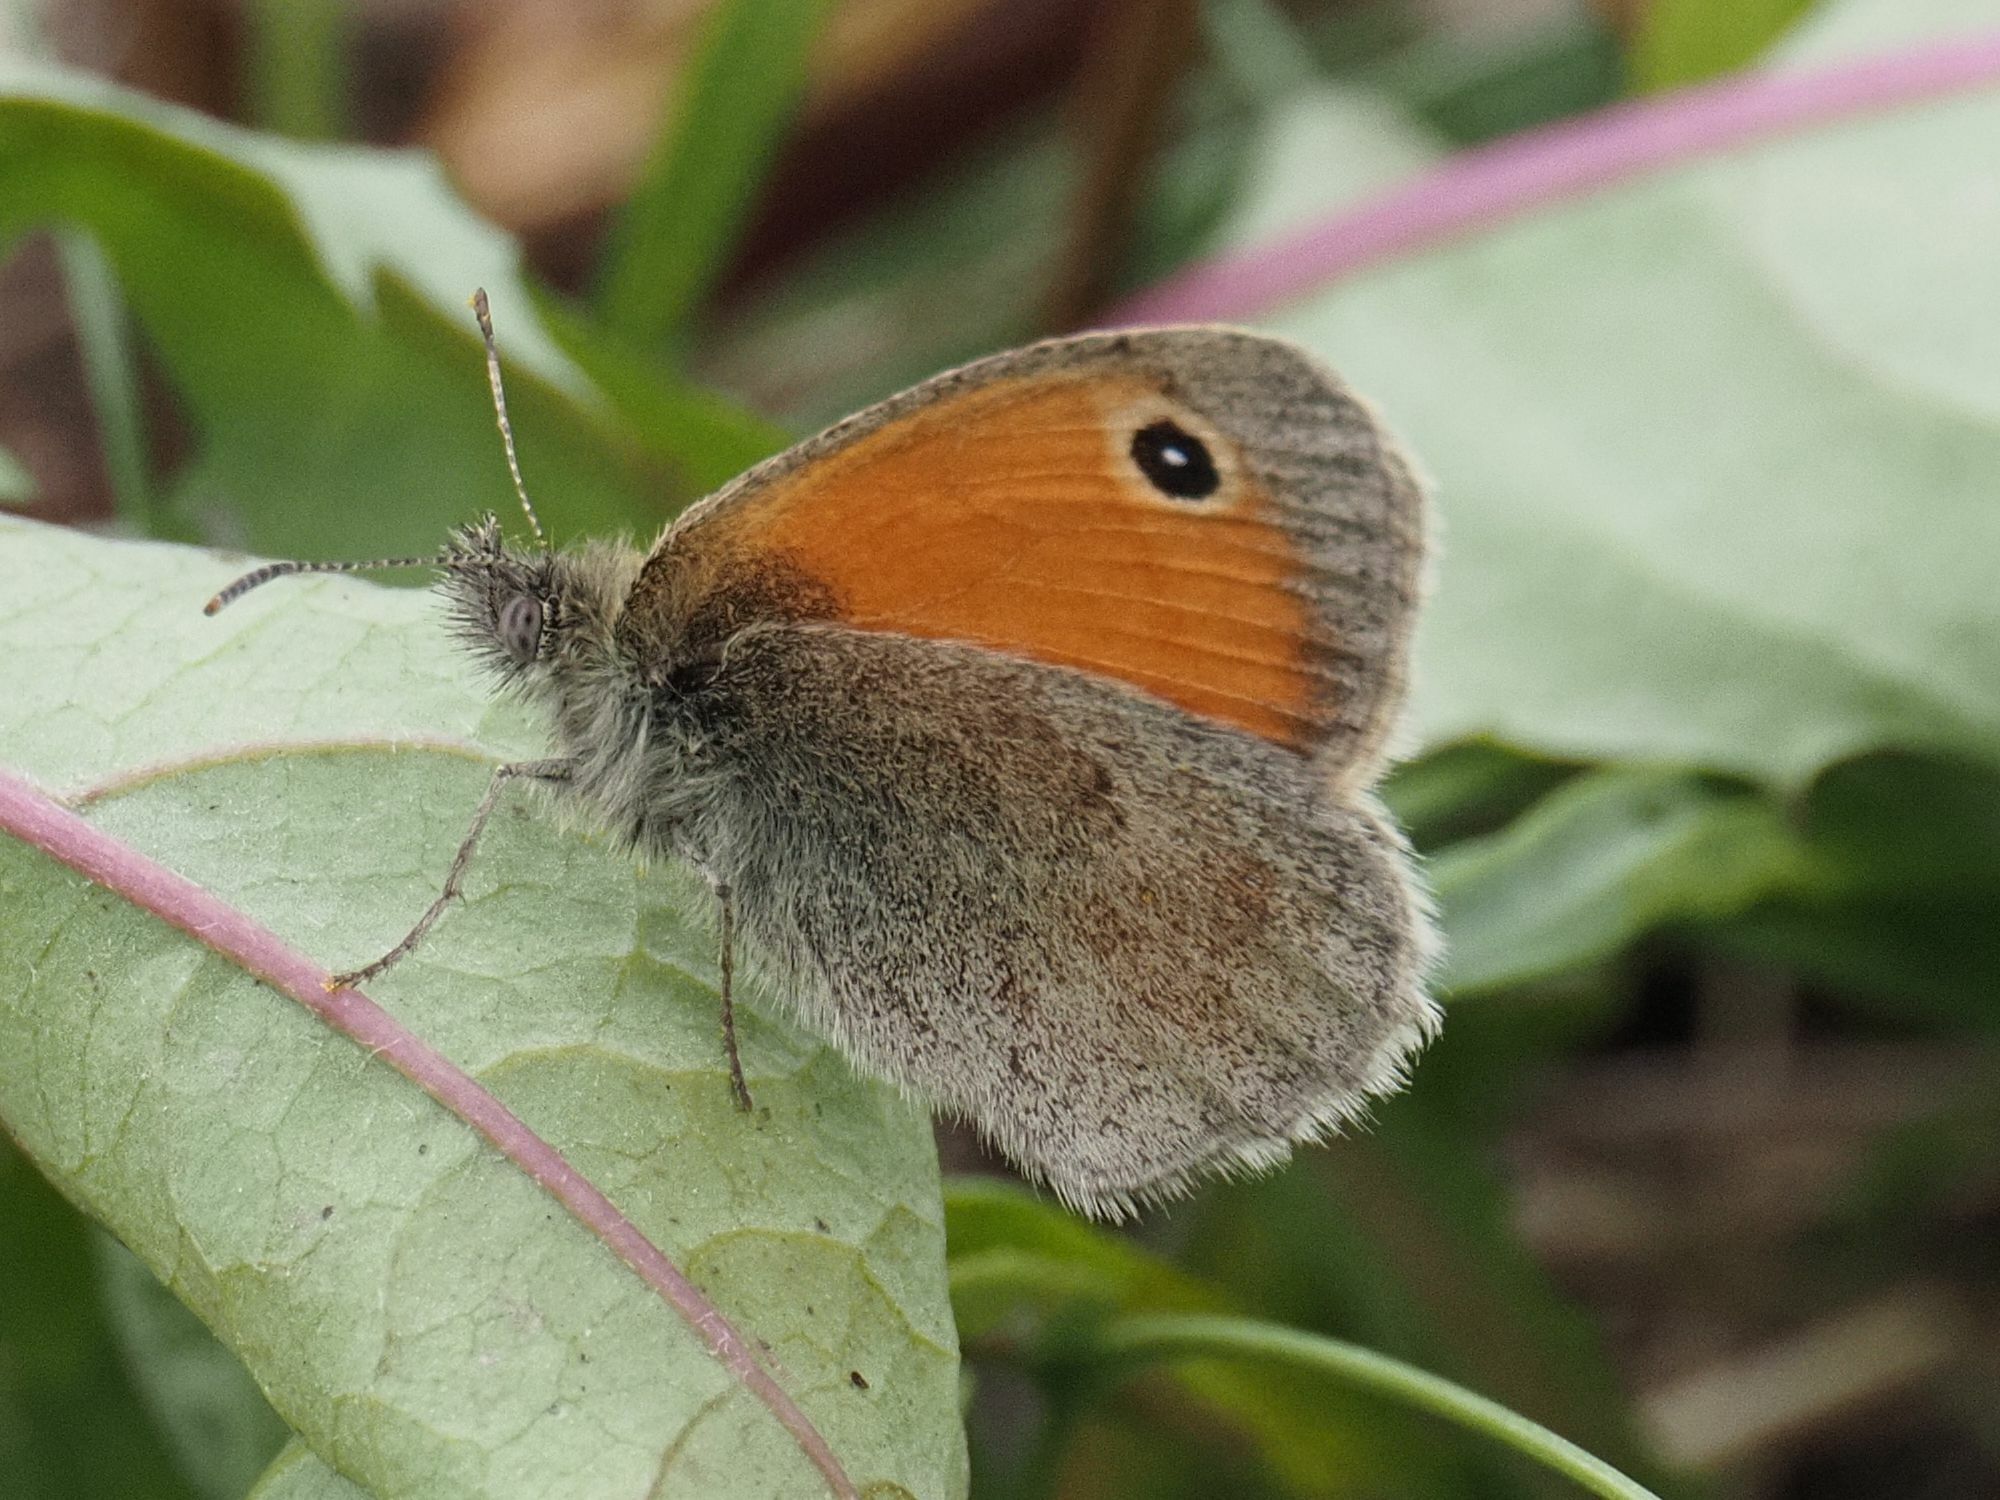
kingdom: Animalia
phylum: Arthropoda
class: Insecta
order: Lepidoptera
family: Nymphalidae
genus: Coenonympha
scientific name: Coenonympha pamphilus
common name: Small heath
